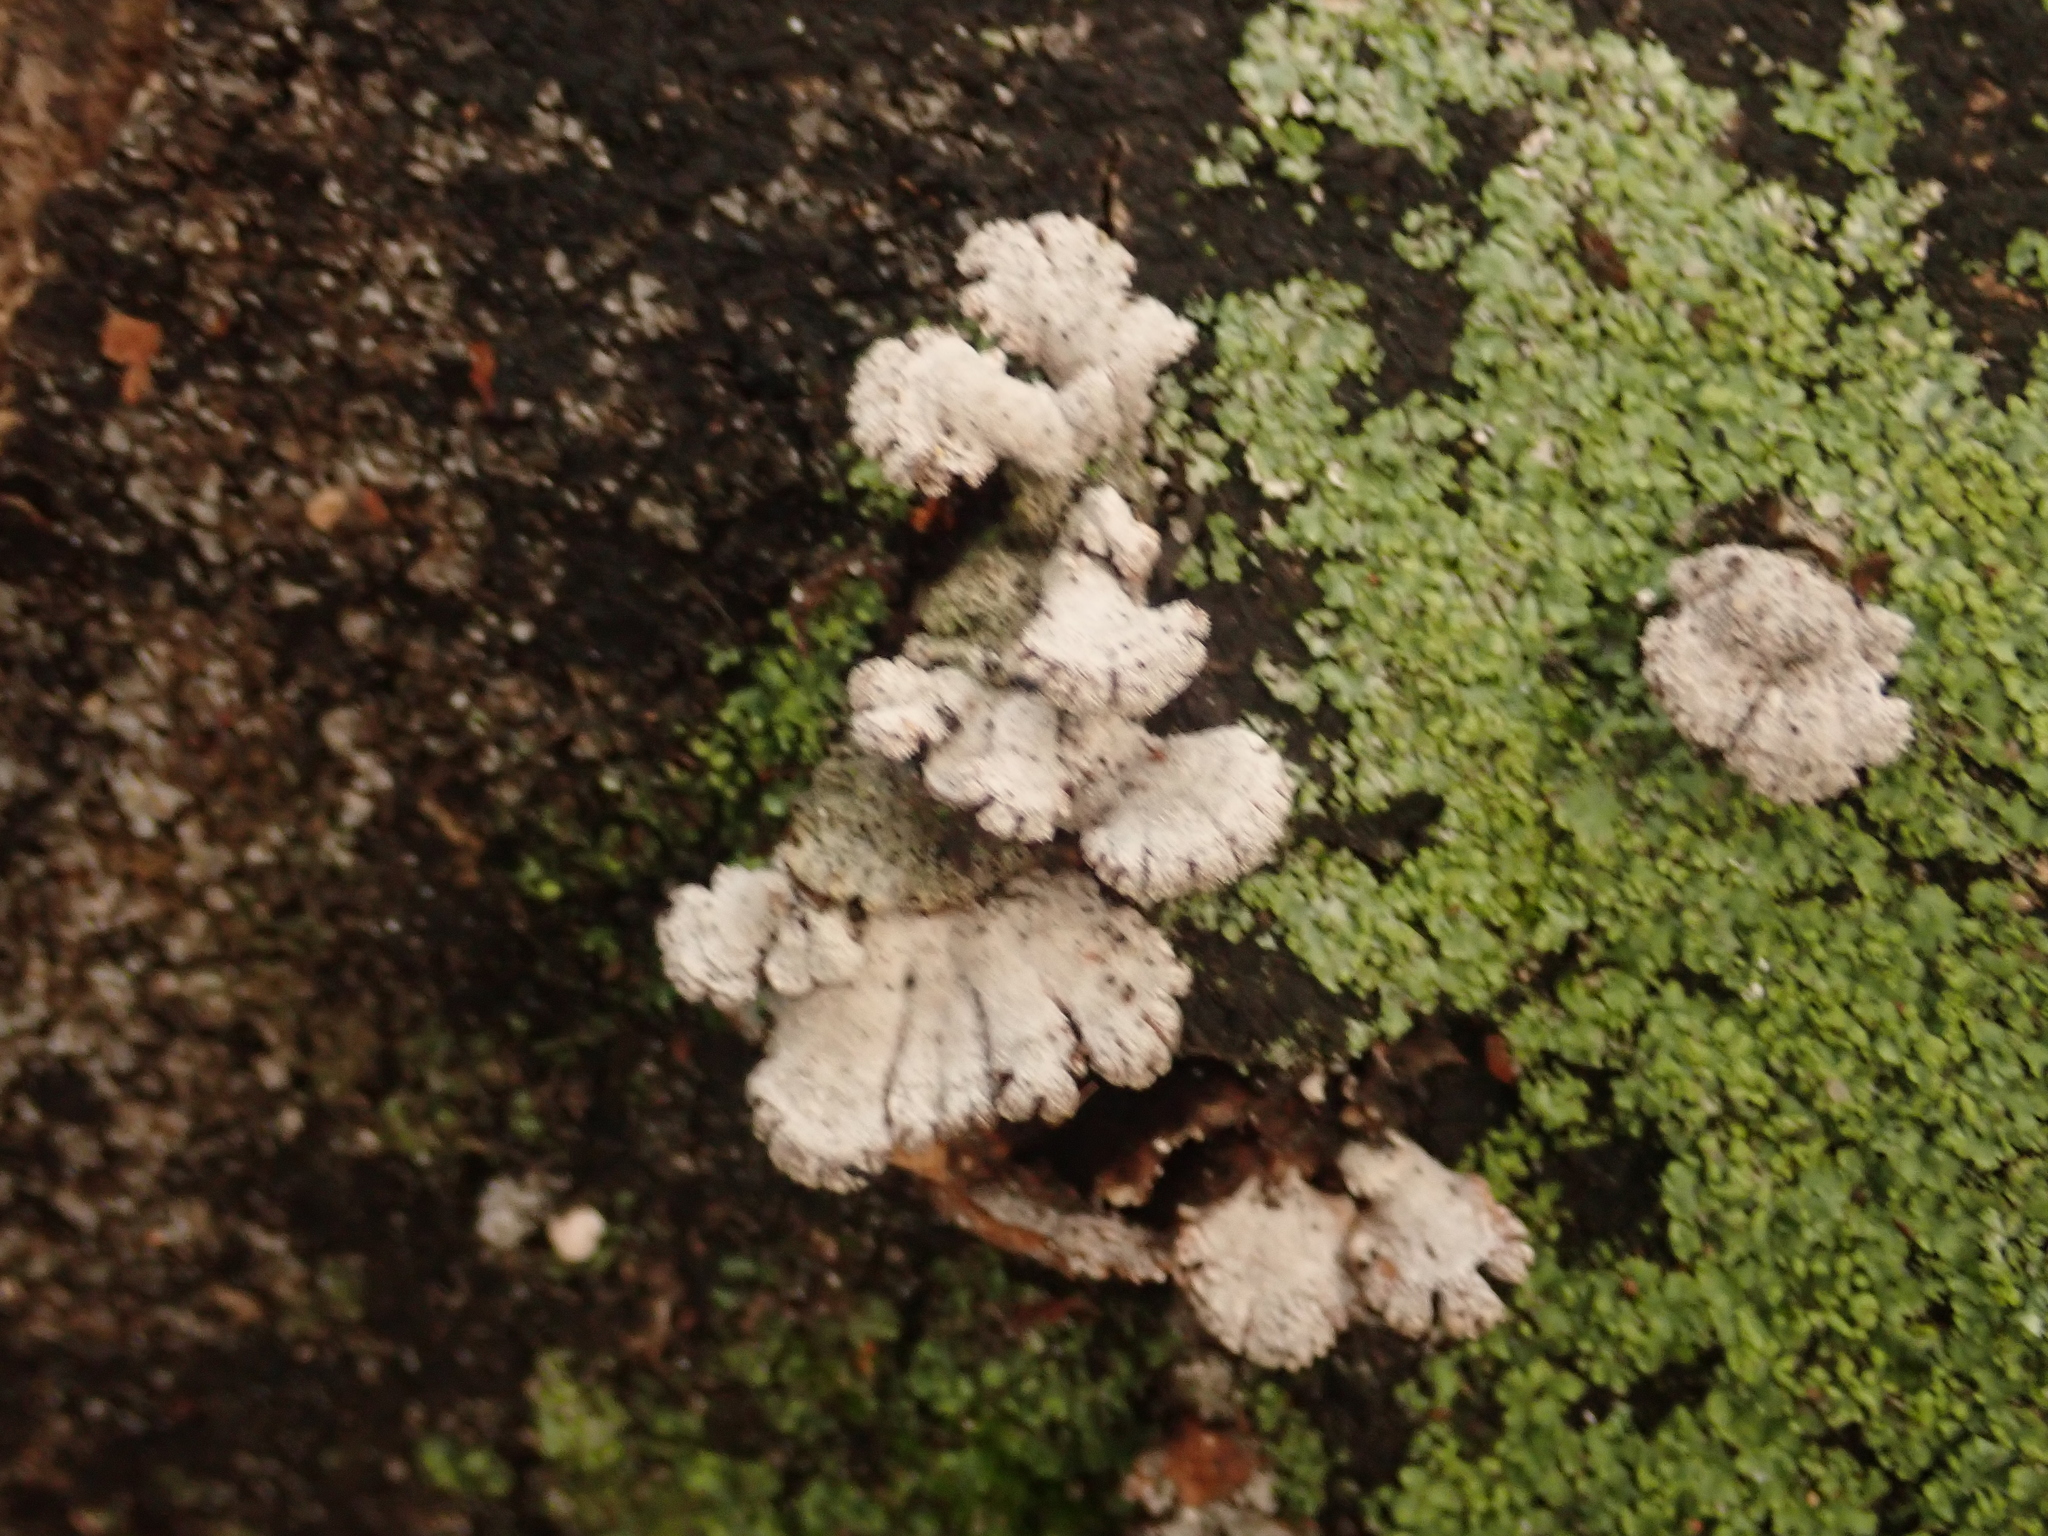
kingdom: Fungi
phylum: Basidiomycota
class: Agaricomycetes
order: Agaricales
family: Schizophyllaceae
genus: Schizophyllum
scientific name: Schizophyllum commune
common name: Common porecrust
